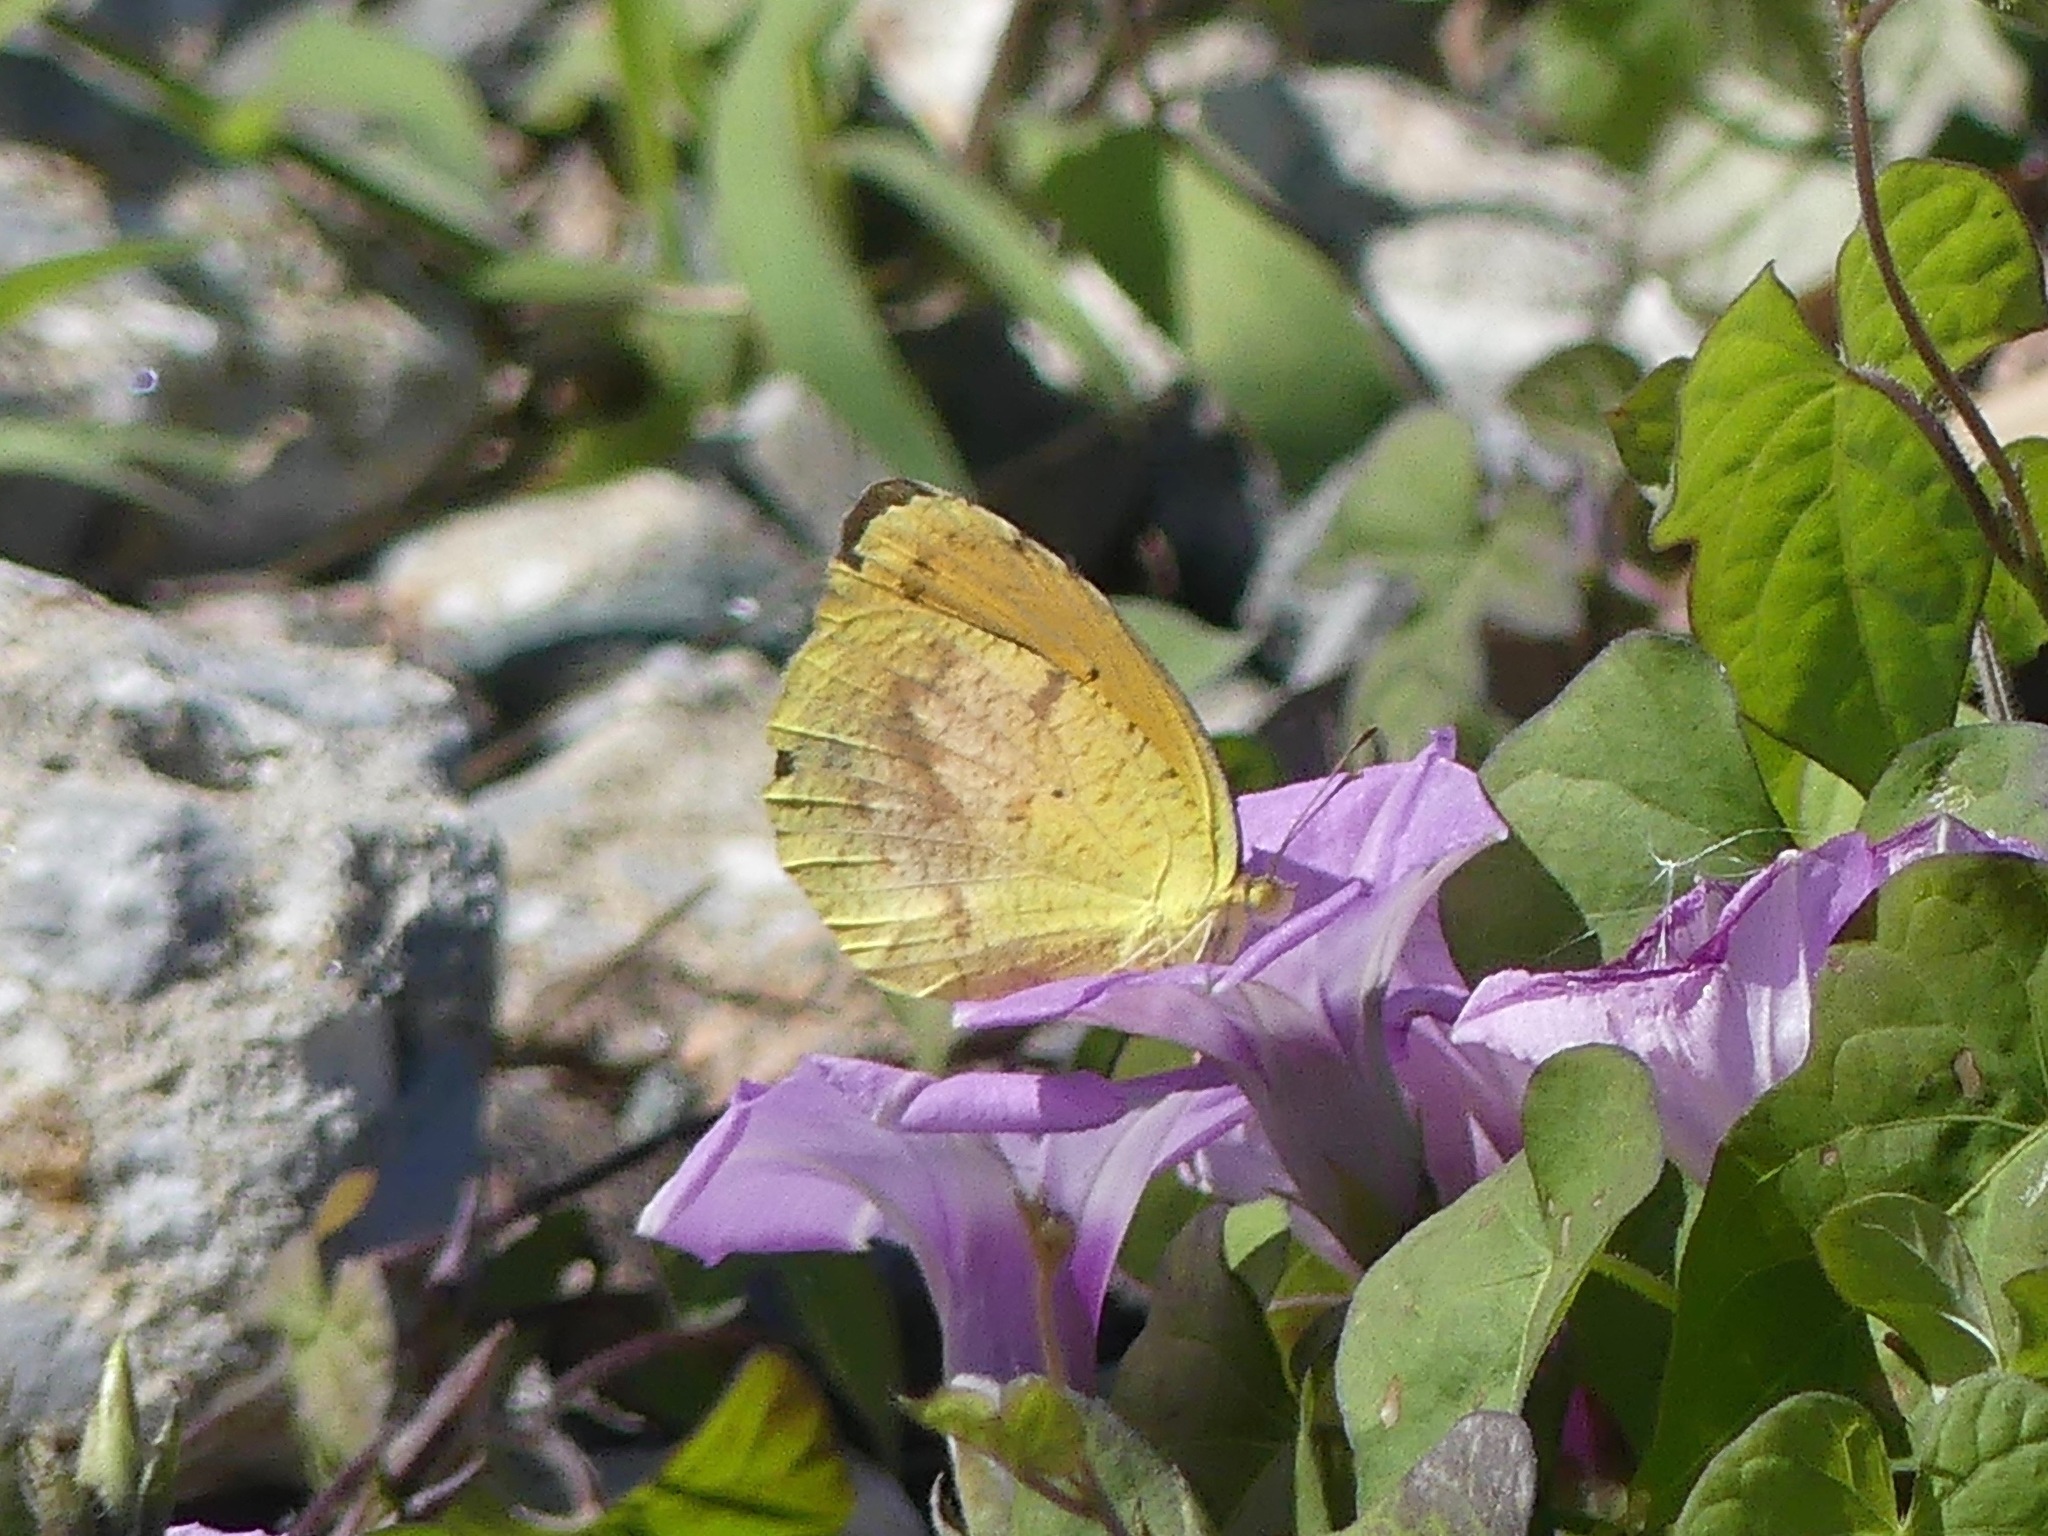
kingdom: Animalia
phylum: Arthropoda
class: Insecta
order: Lepidoptera
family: Pieridae
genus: Abaeis
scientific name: Abaeis nicippe
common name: Sleepy orange
